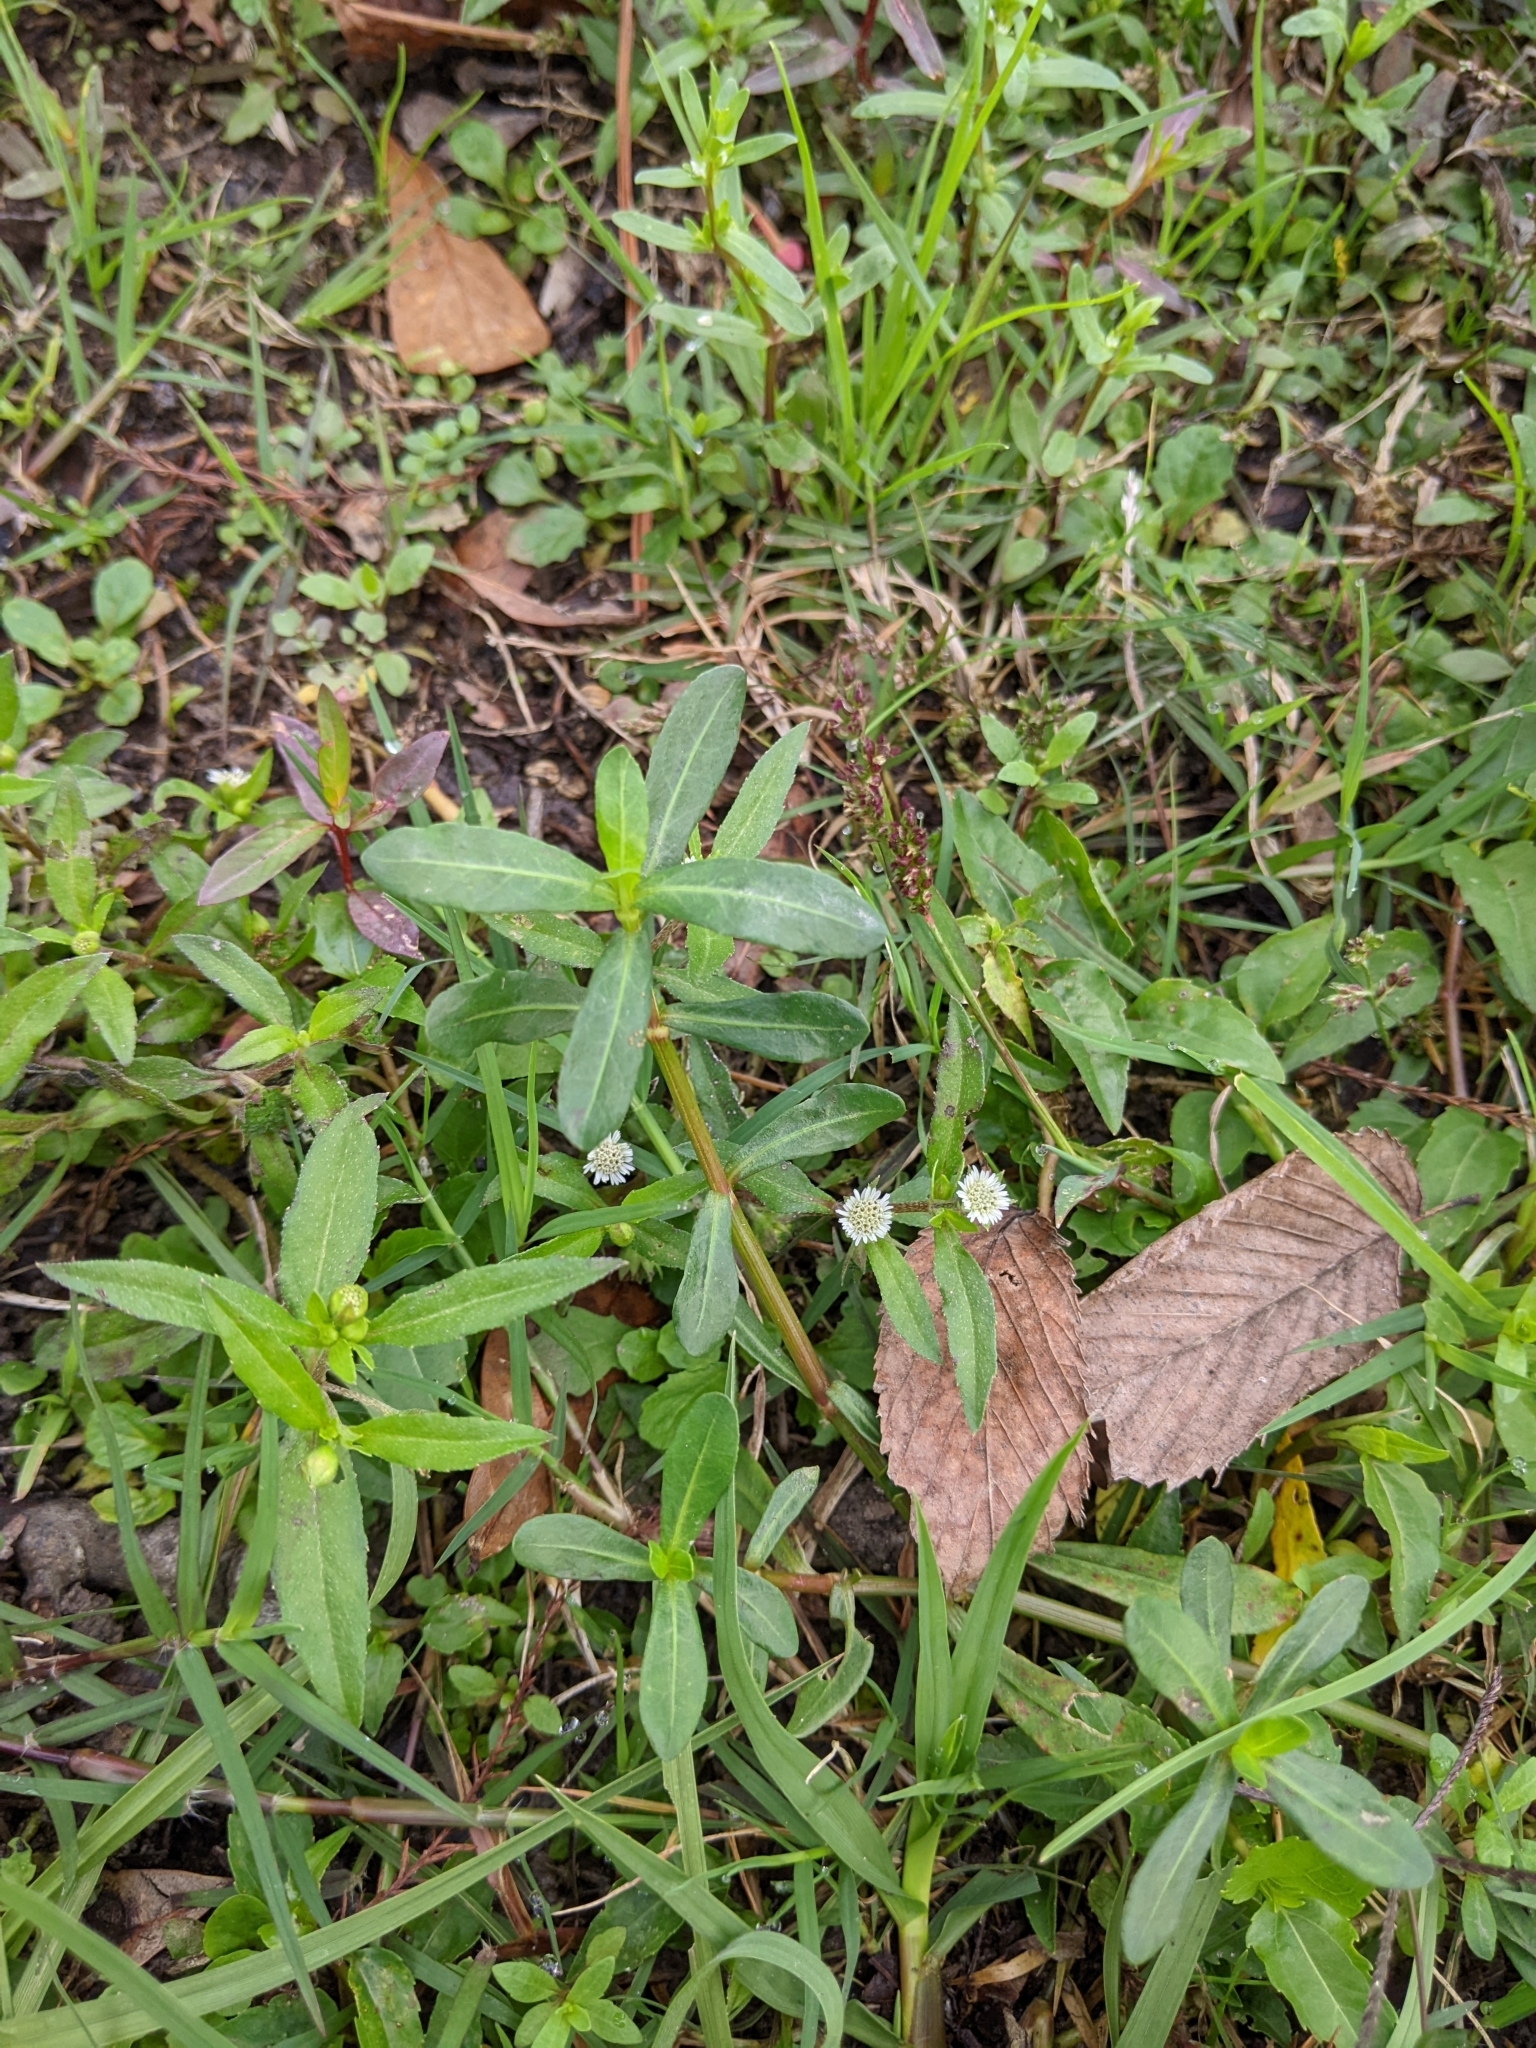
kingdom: Plantae
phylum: Tracheophyta
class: Magnoliopsida
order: Asterales
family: Asteraceae
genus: Eclipta
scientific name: Eclipta prostrata
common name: False daisy
